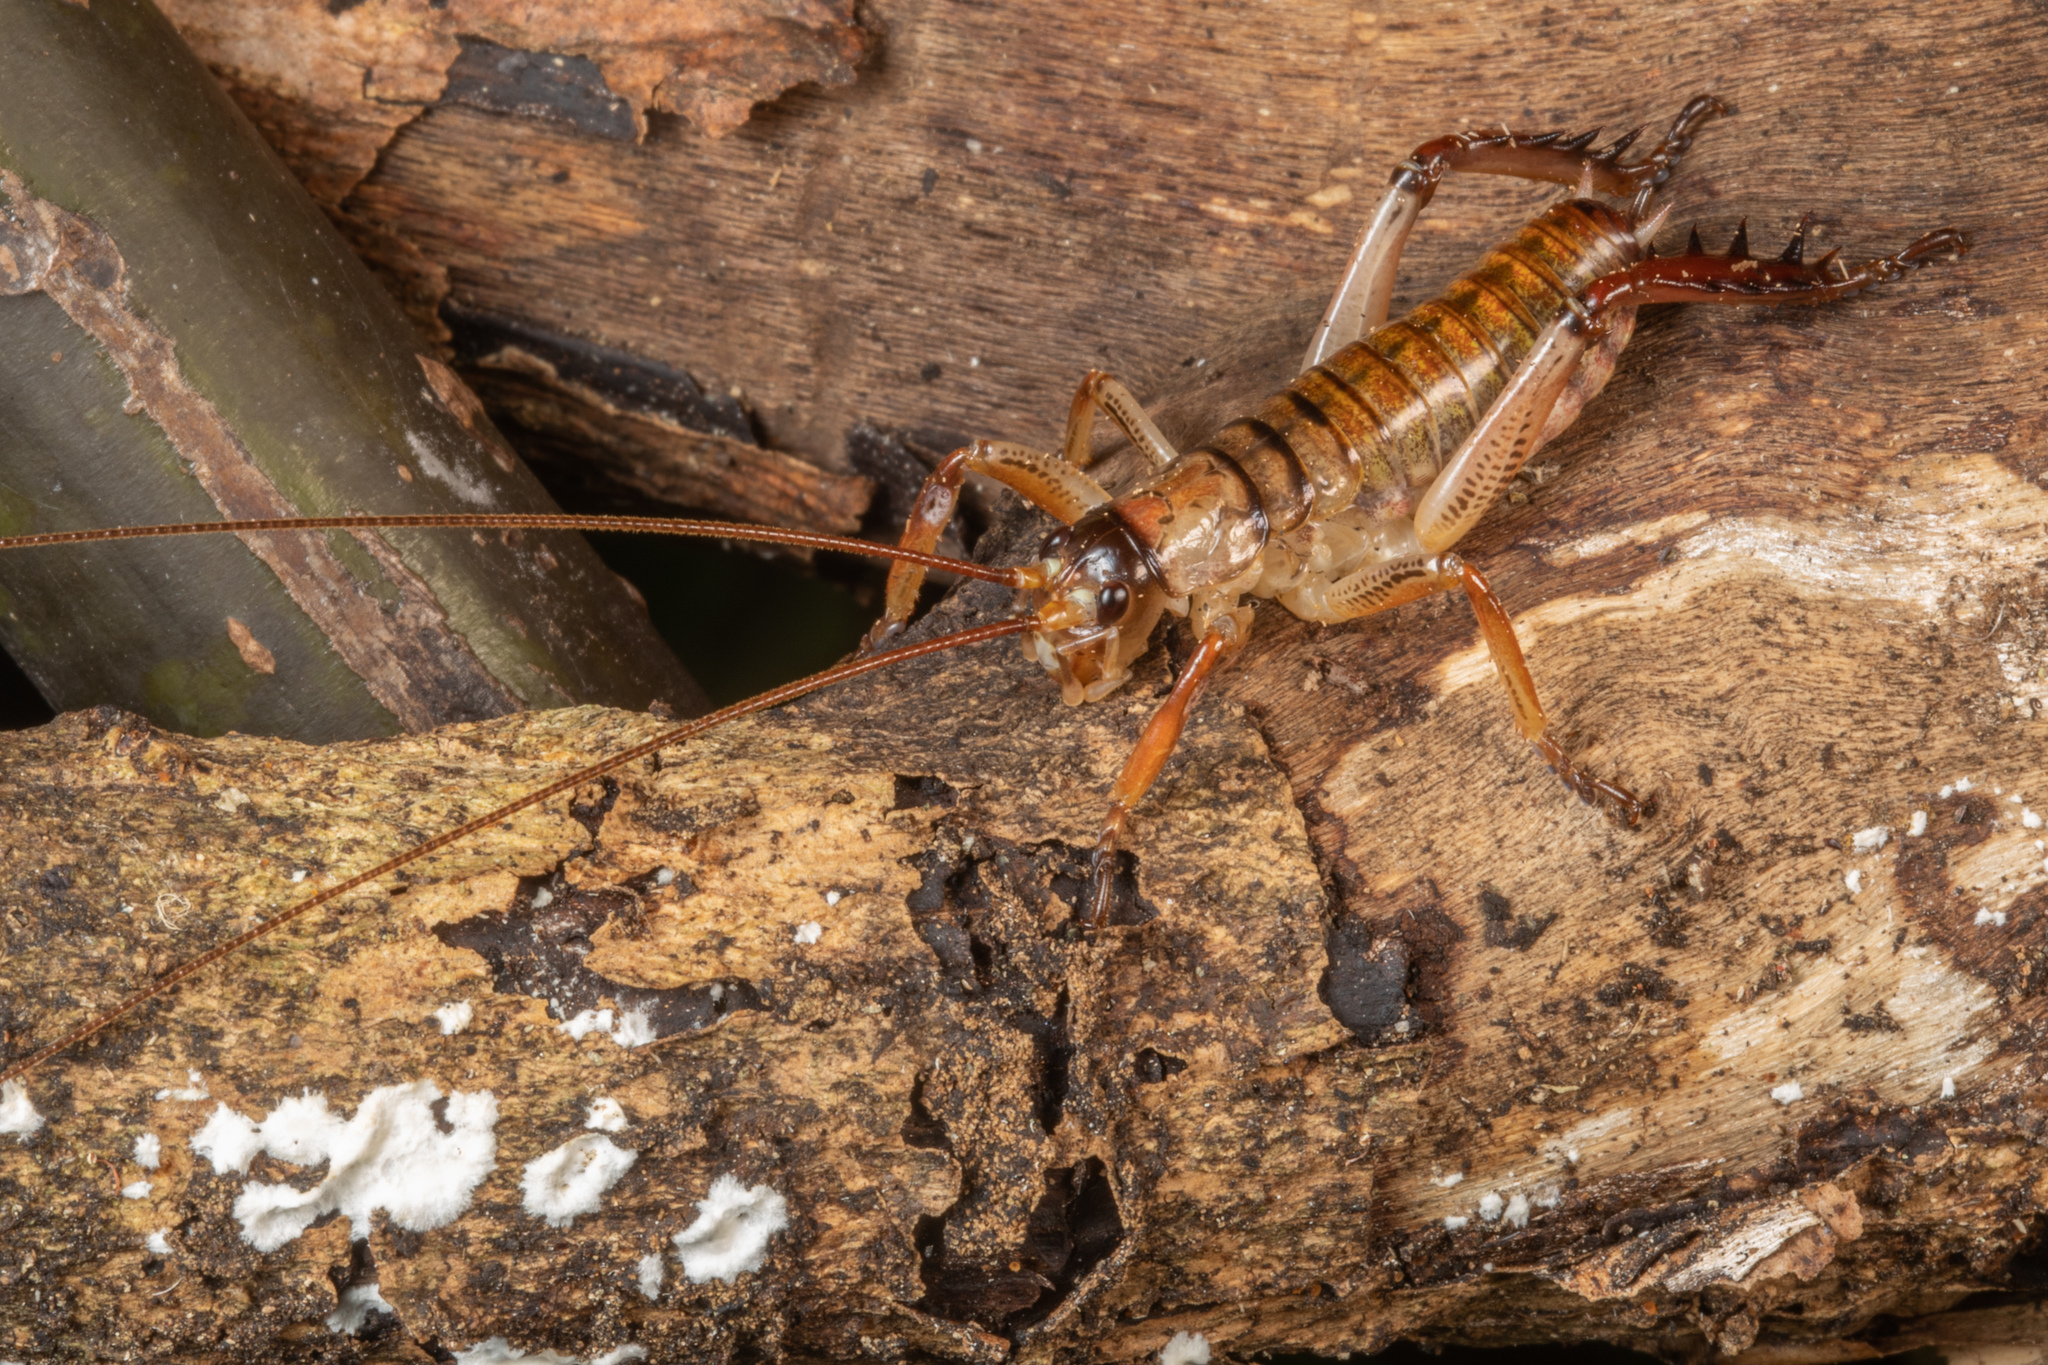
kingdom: Animalia
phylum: Arthropoda
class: Insecta
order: Orthoptera
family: Anostostomatidae
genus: Hemideina
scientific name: Hemideina thoracica
